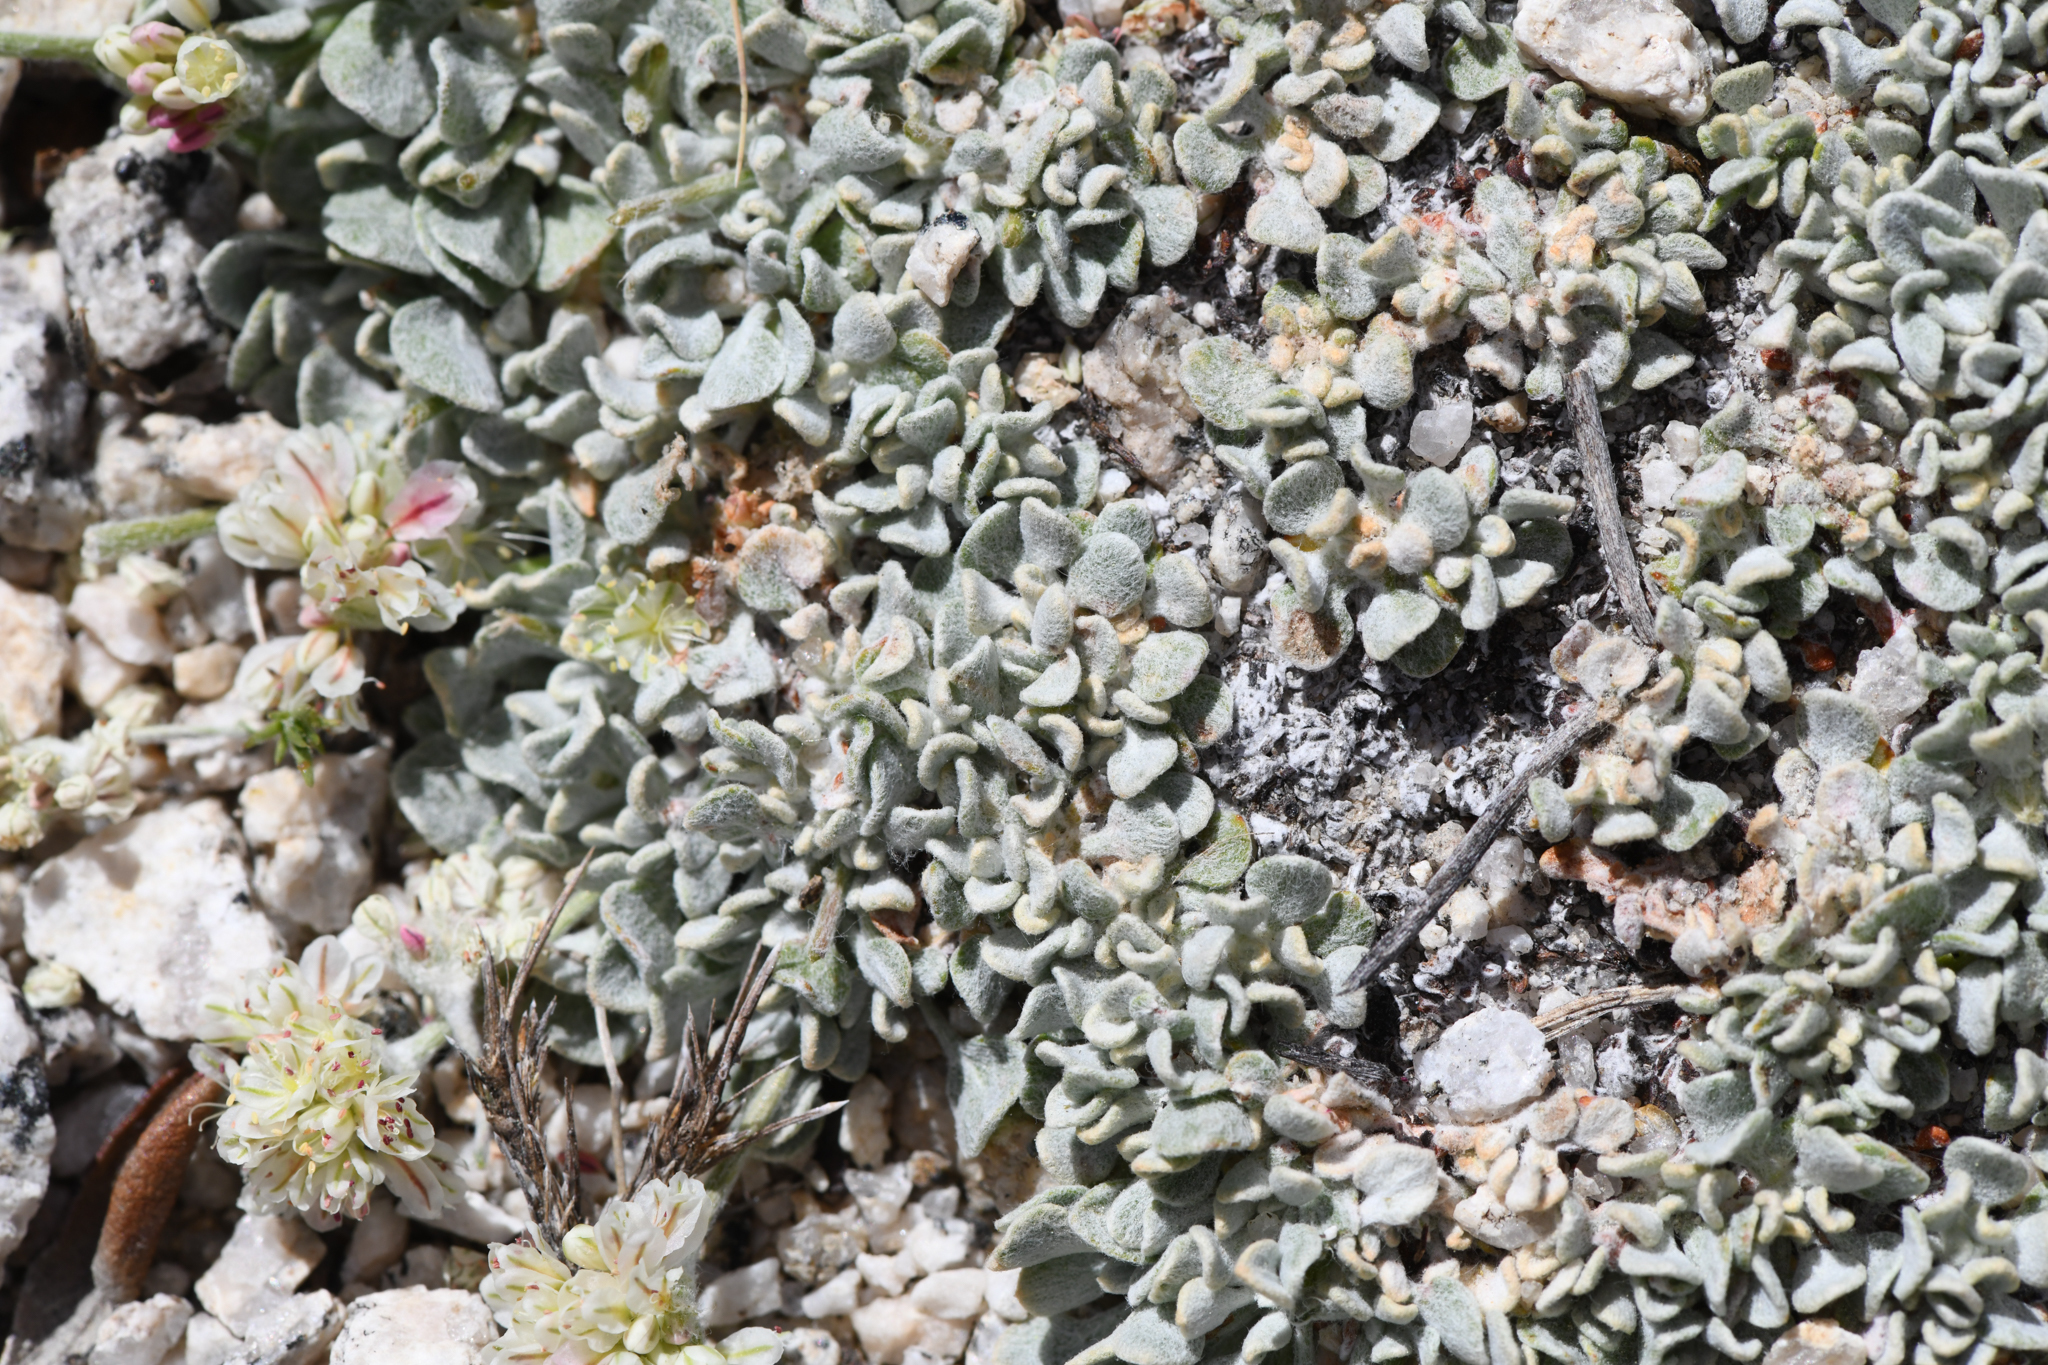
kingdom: Plantae
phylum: Tracheophyta
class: Magnoliopsida
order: Caryophyllales
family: Polygonaceae
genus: Eriogonum
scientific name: Eriogonum ovalifolium
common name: Cushion buckwheat
